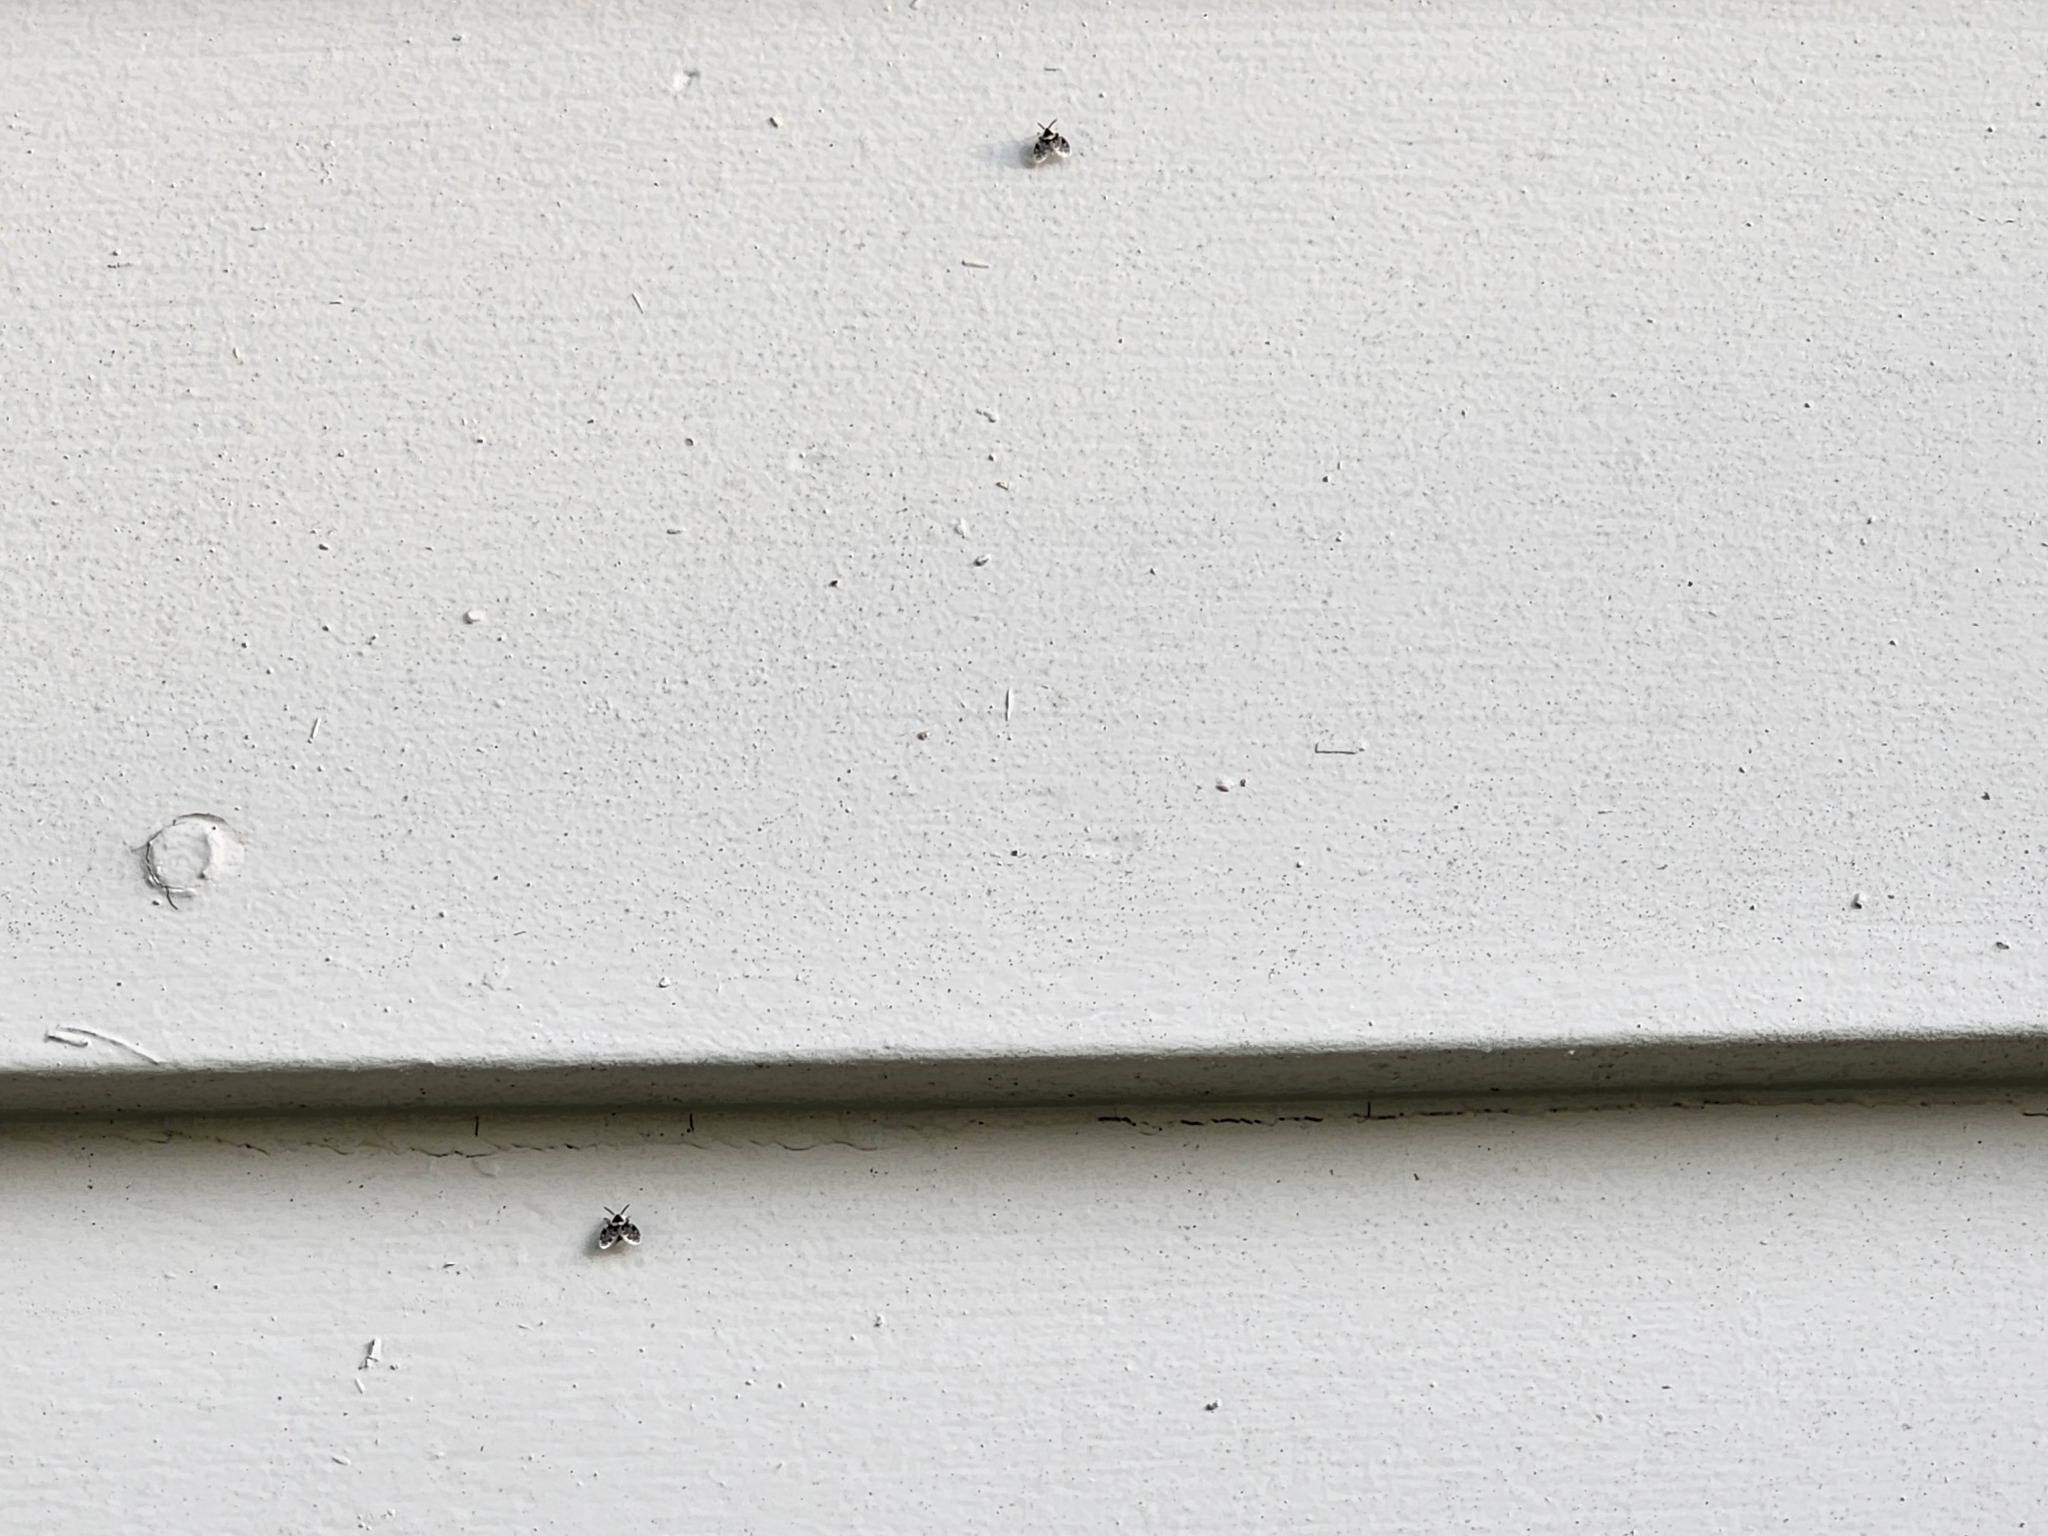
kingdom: Animalia
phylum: Arthropoda
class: Insecta
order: Diptera
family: Psychodidae
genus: Lepiseodina
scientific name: Lepiseodina
